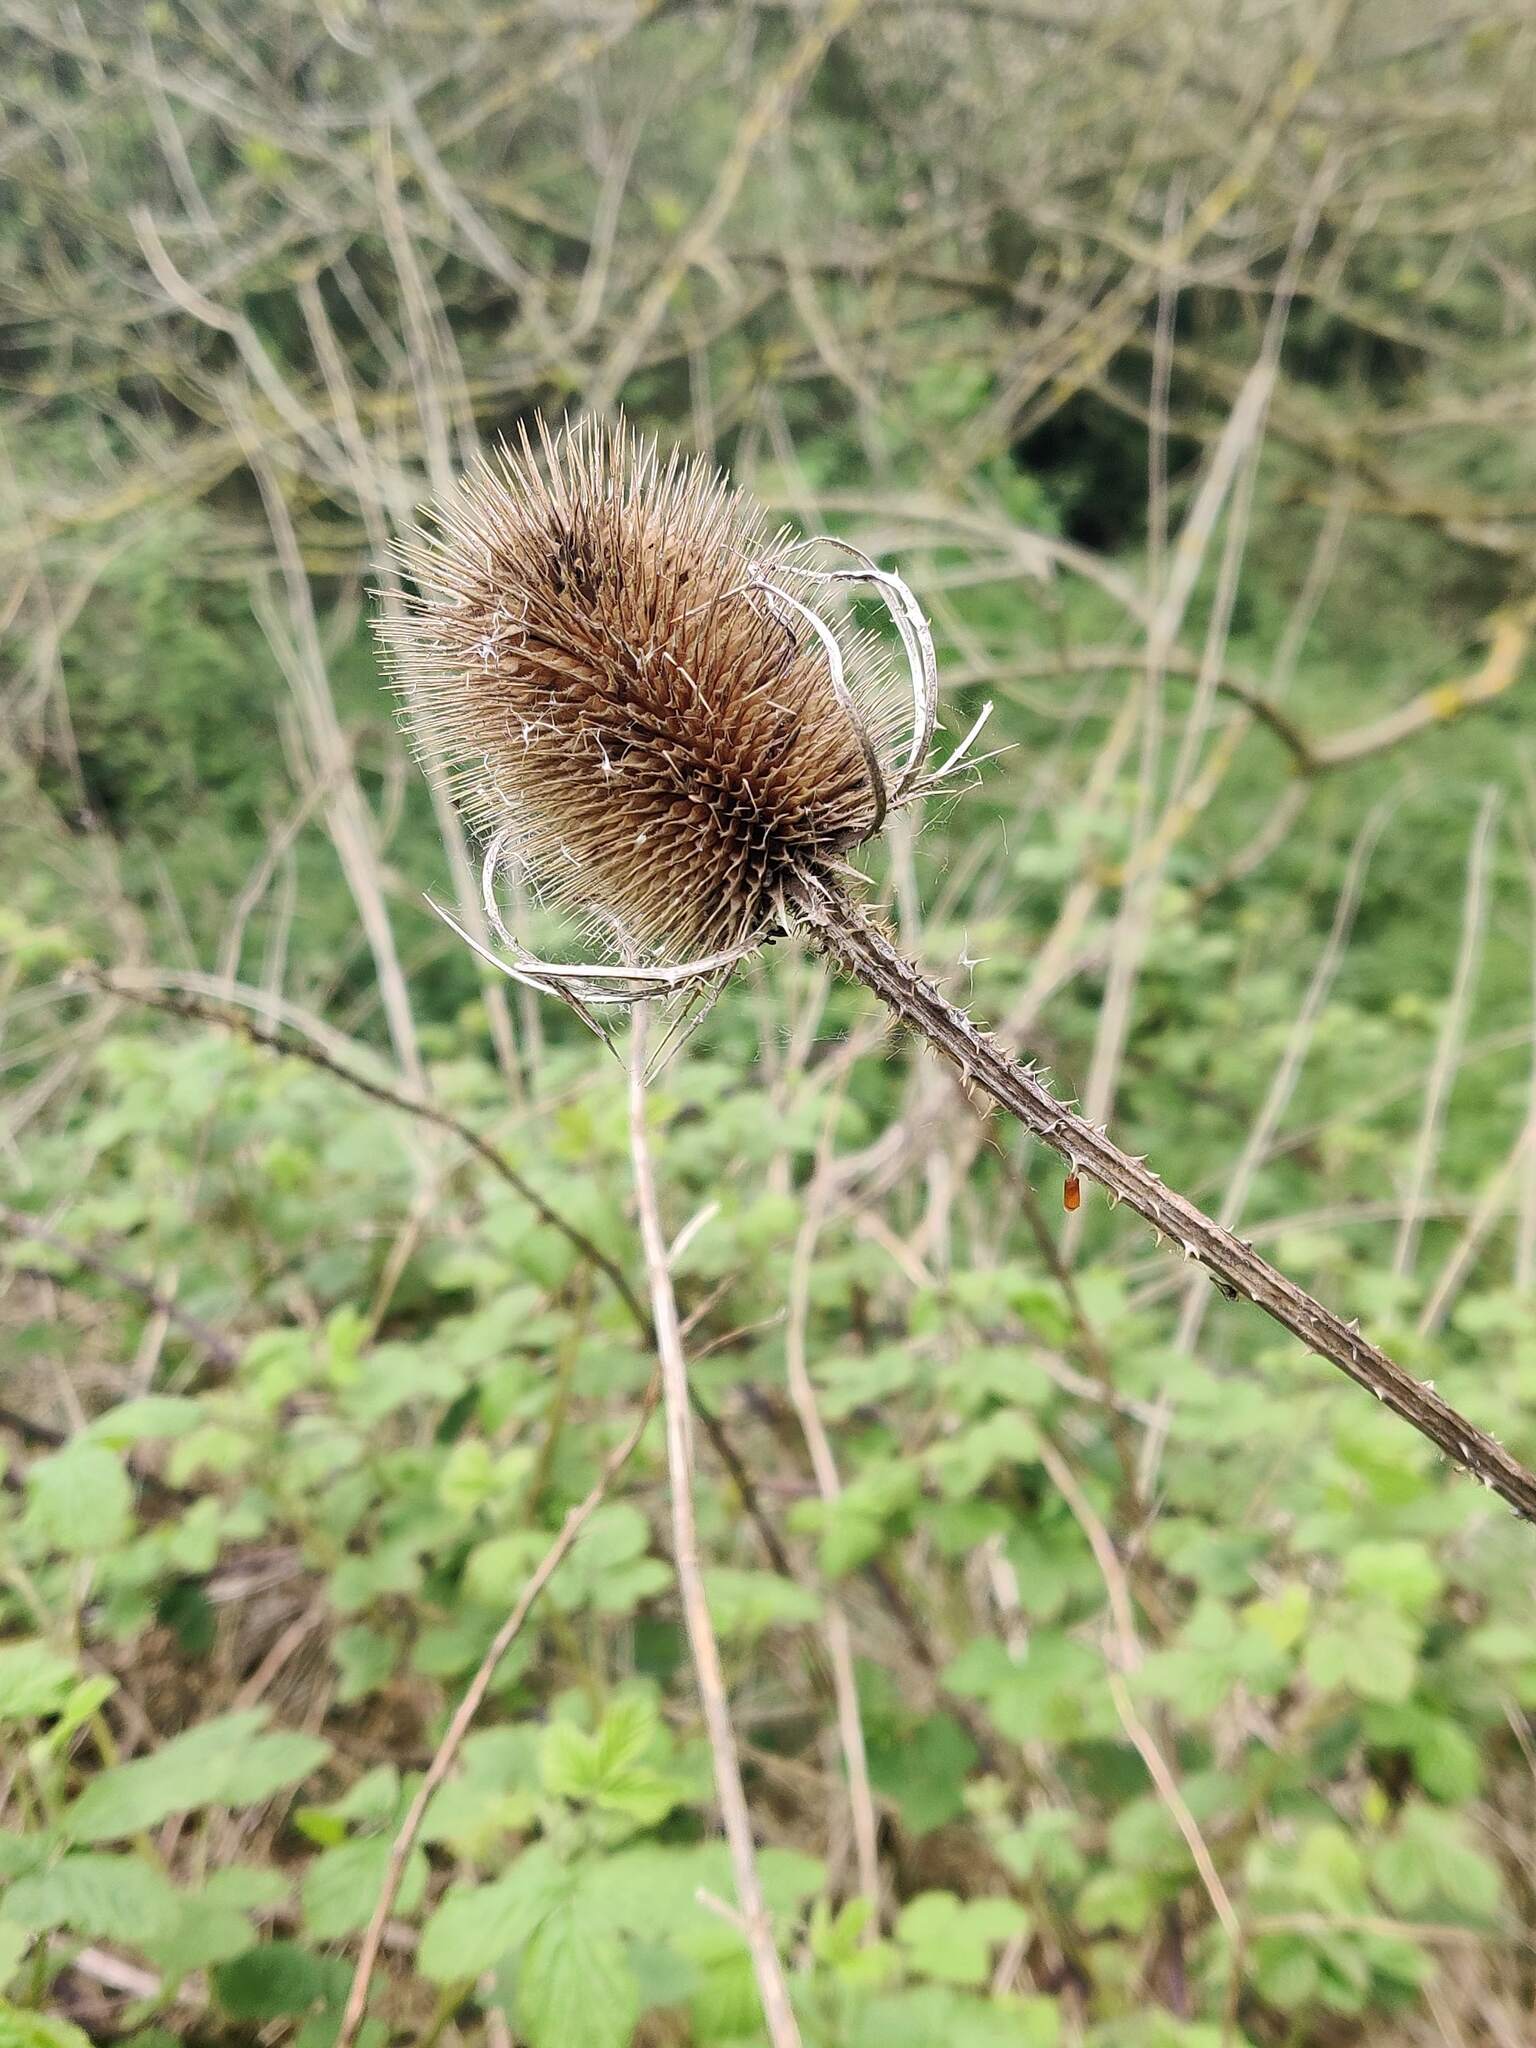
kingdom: Plantae
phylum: Tracheophyta
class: Magnoliopsida
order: Dipsacales
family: Caprifoliaceae
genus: Dipsacus
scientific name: Dipsacus fullonum
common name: Teasel
